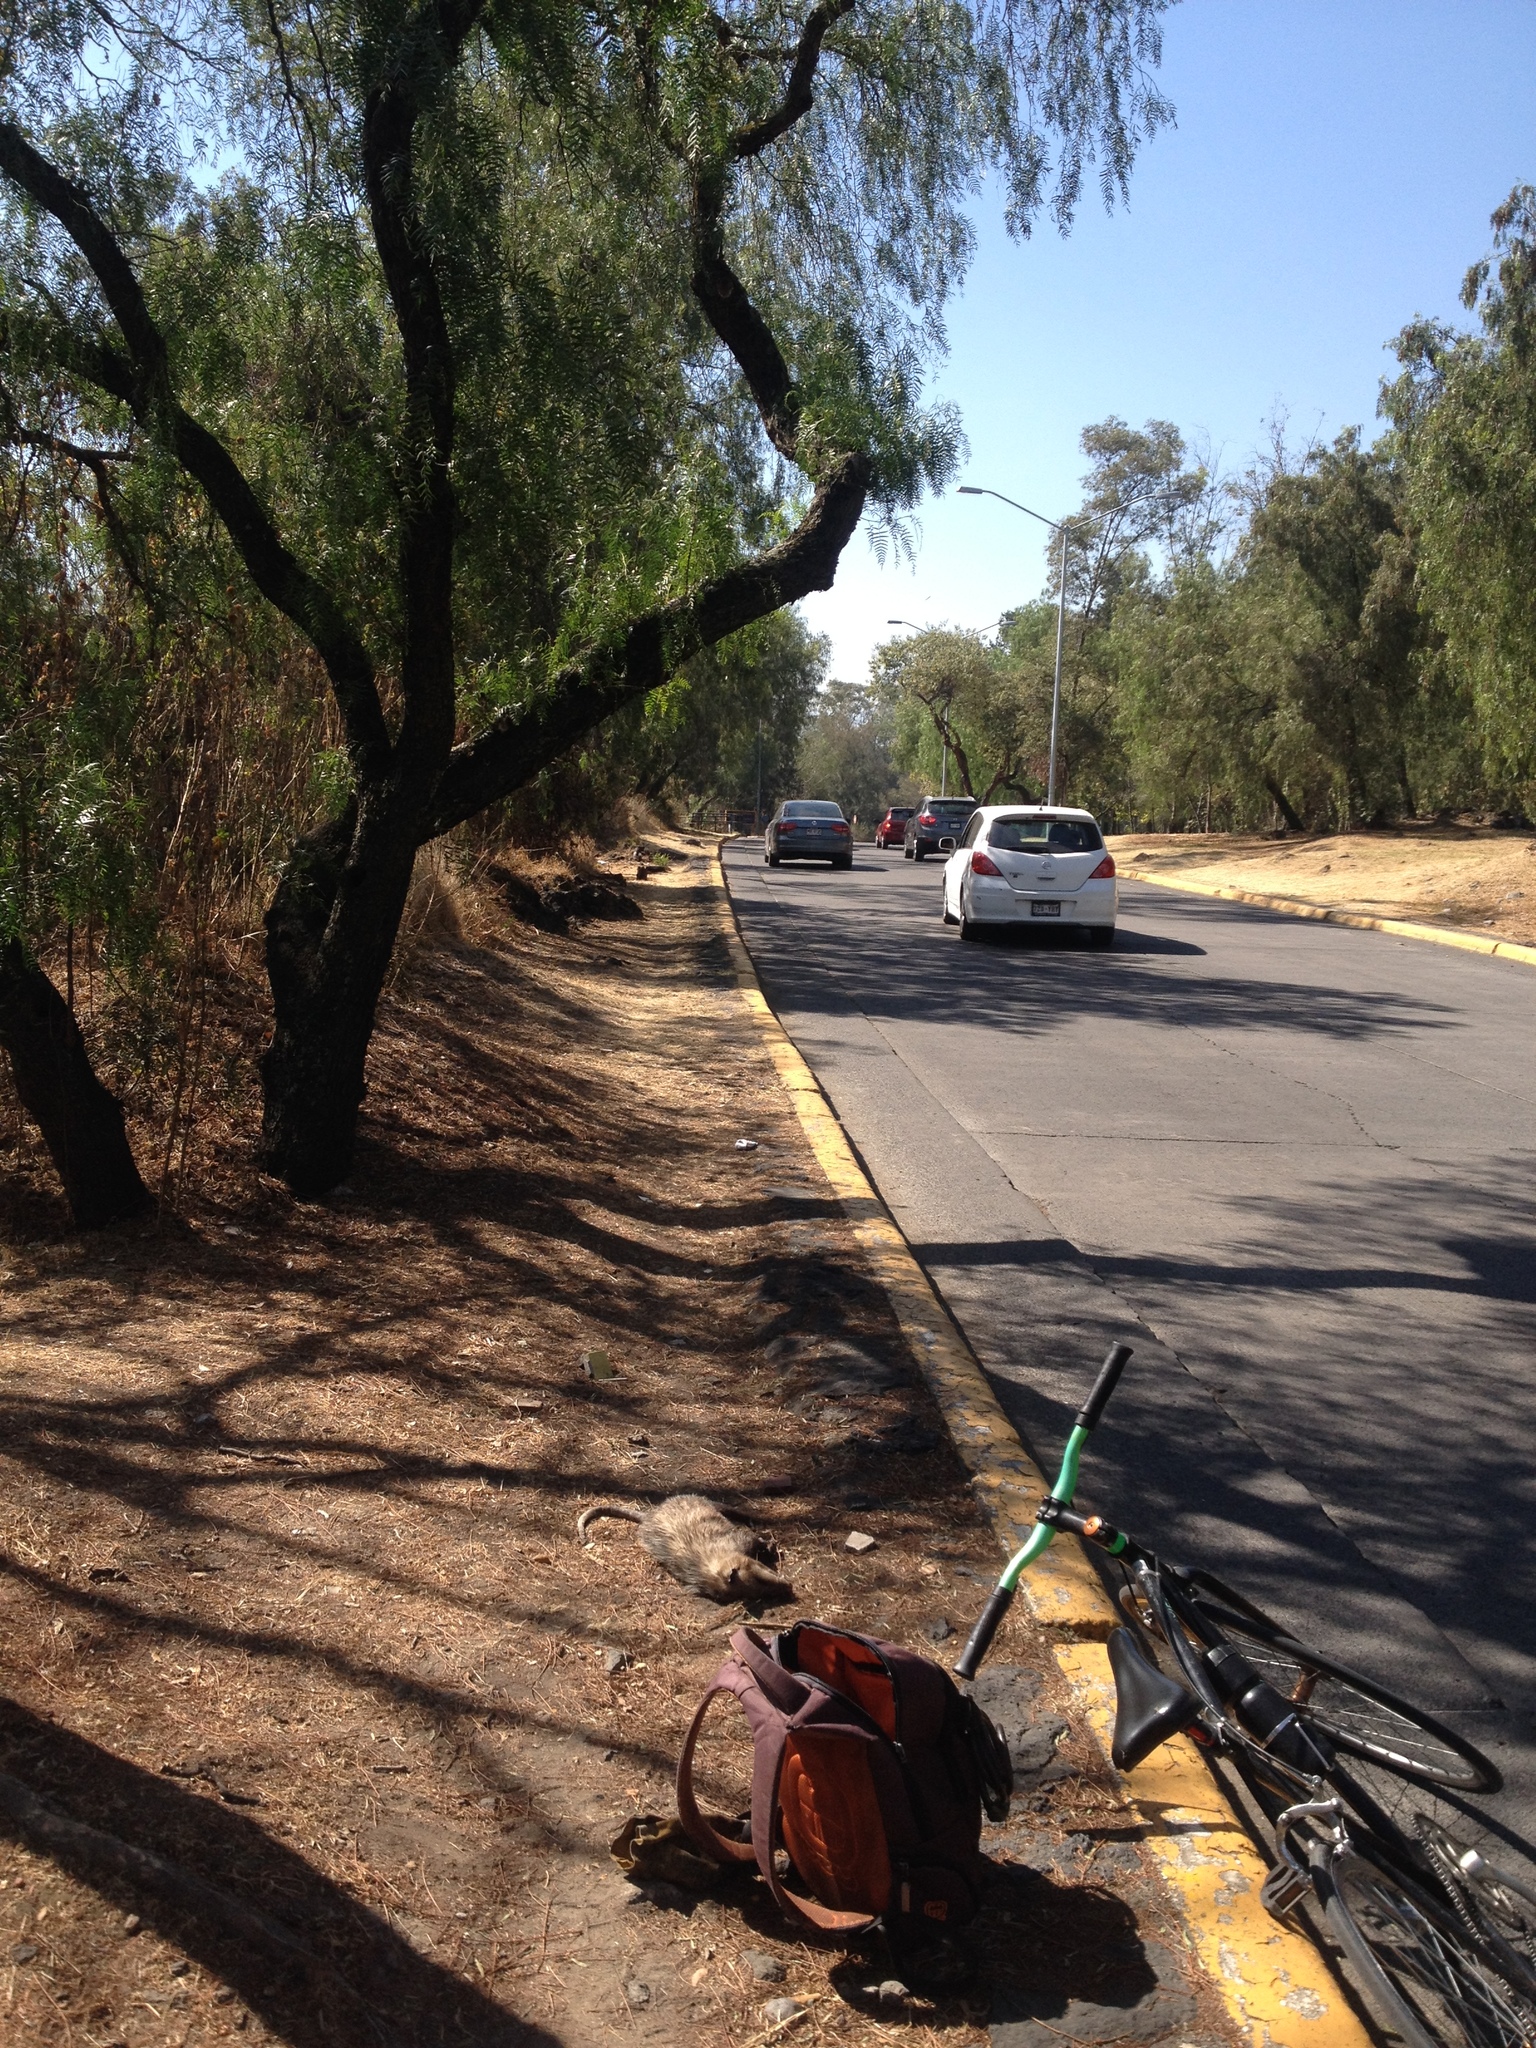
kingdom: Animalia
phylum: Chordata
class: Mammalia
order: Didelphimorphia
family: Didelphidae
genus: Didelphis
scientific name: Didelphis virginiana
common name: Virginia opossum
